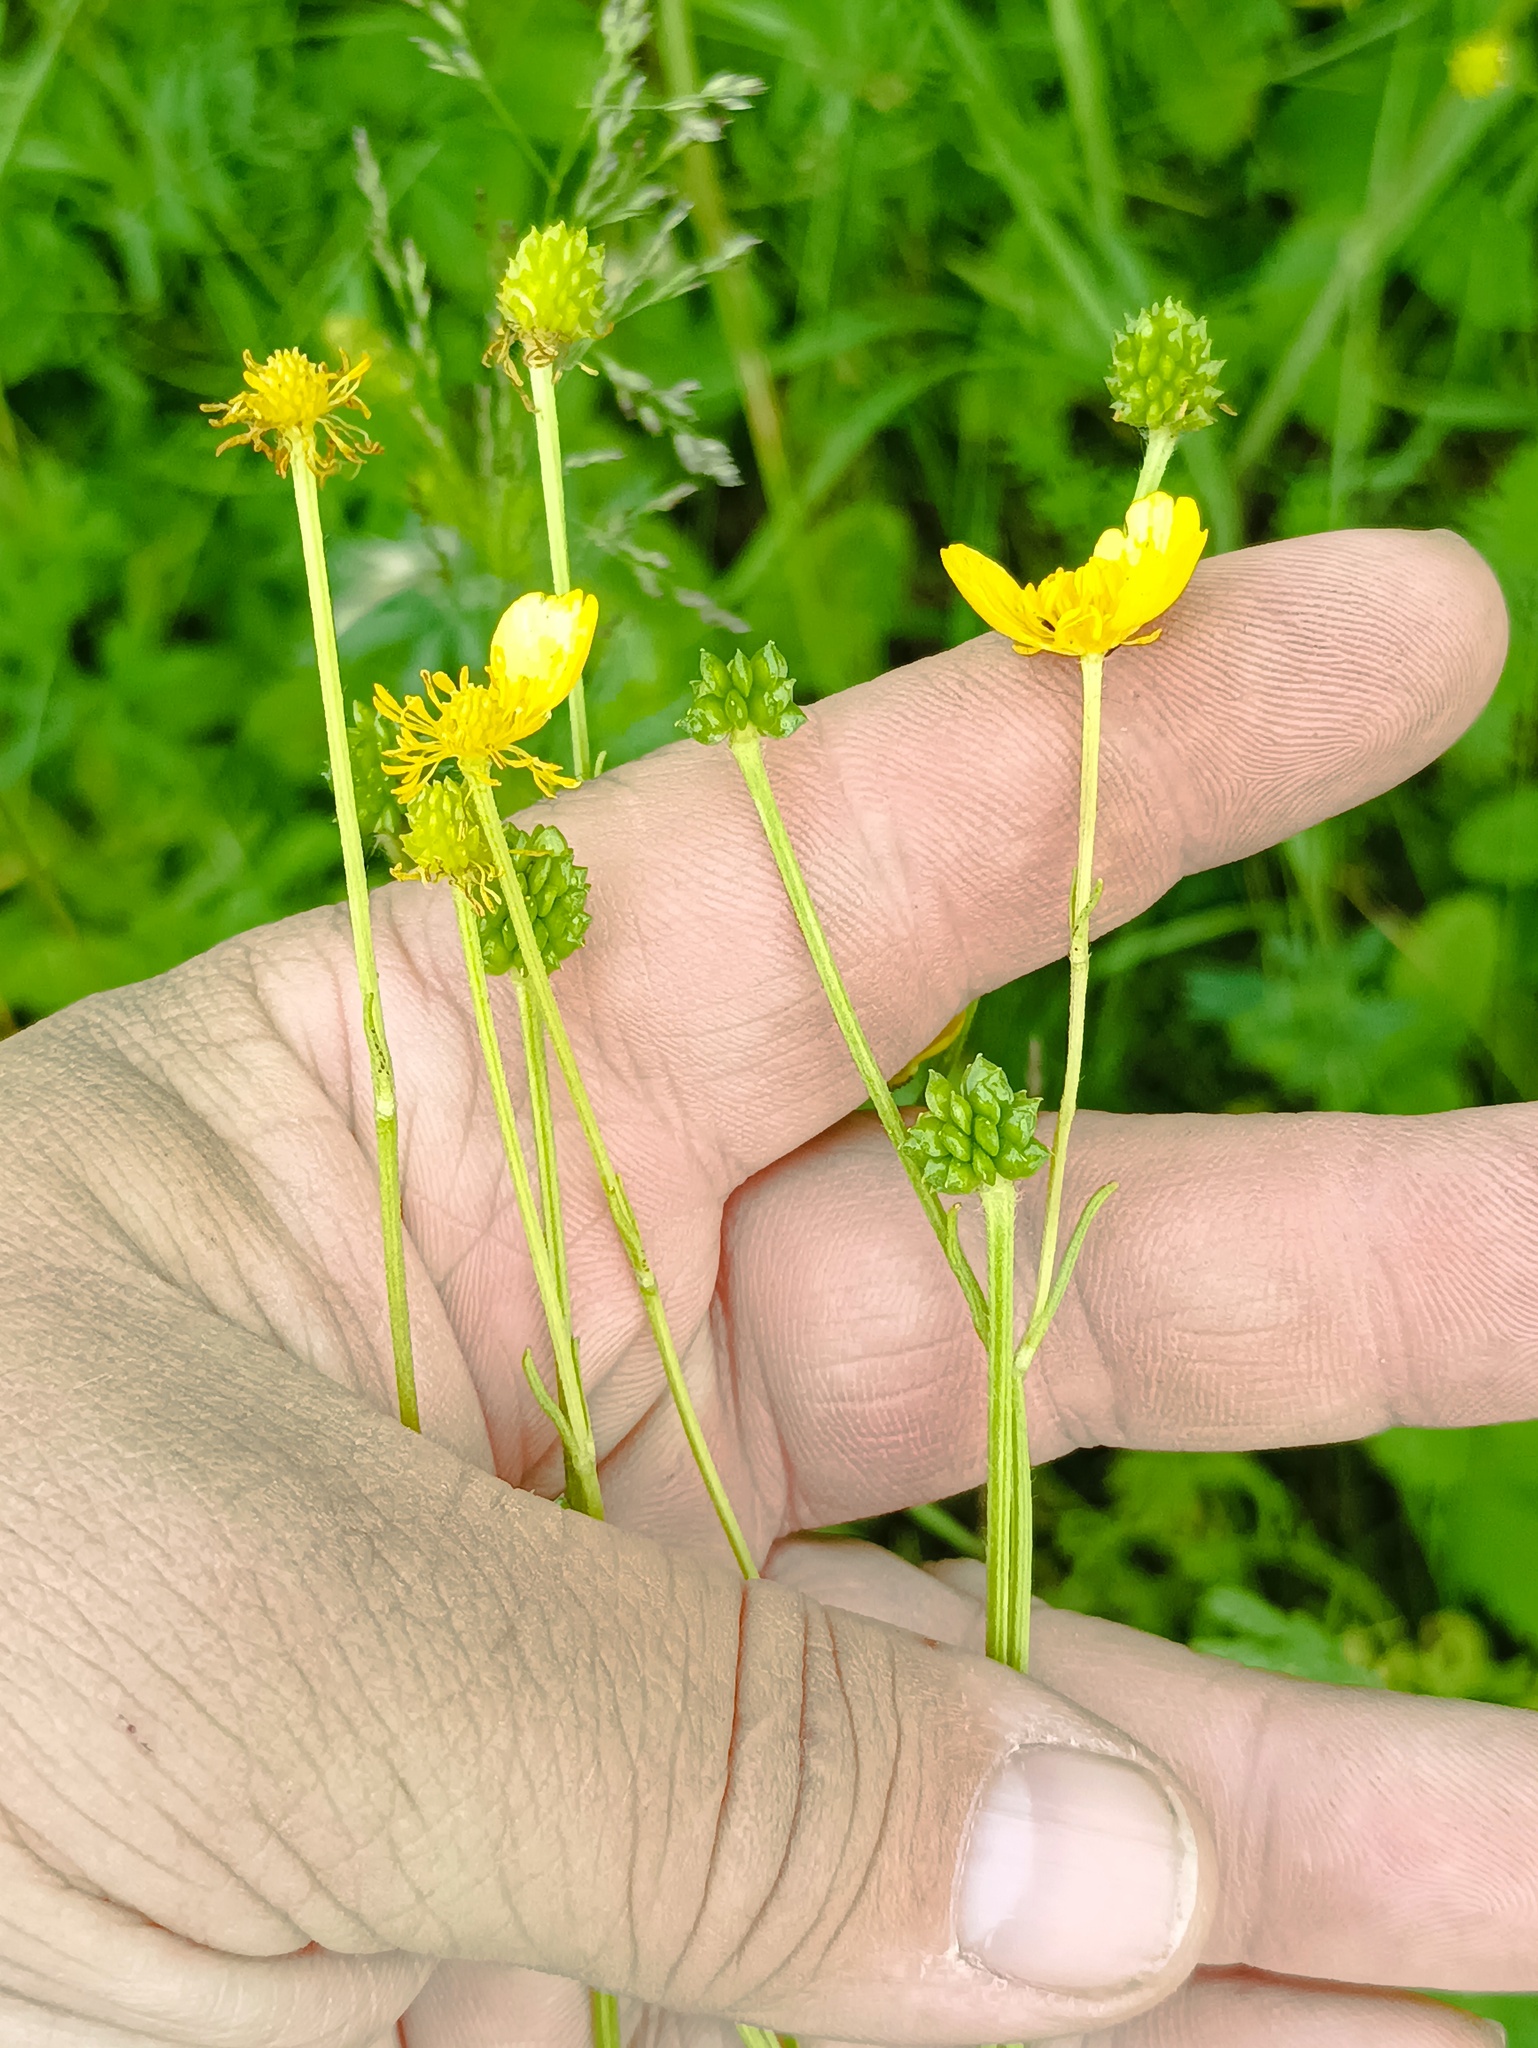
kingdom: Plantae
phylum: Tracheophyta
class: Magnoliopsida
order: Ranunculales
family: Ranunculaceae
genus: Ranunculus
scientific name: Ranunculus polyanthemos
